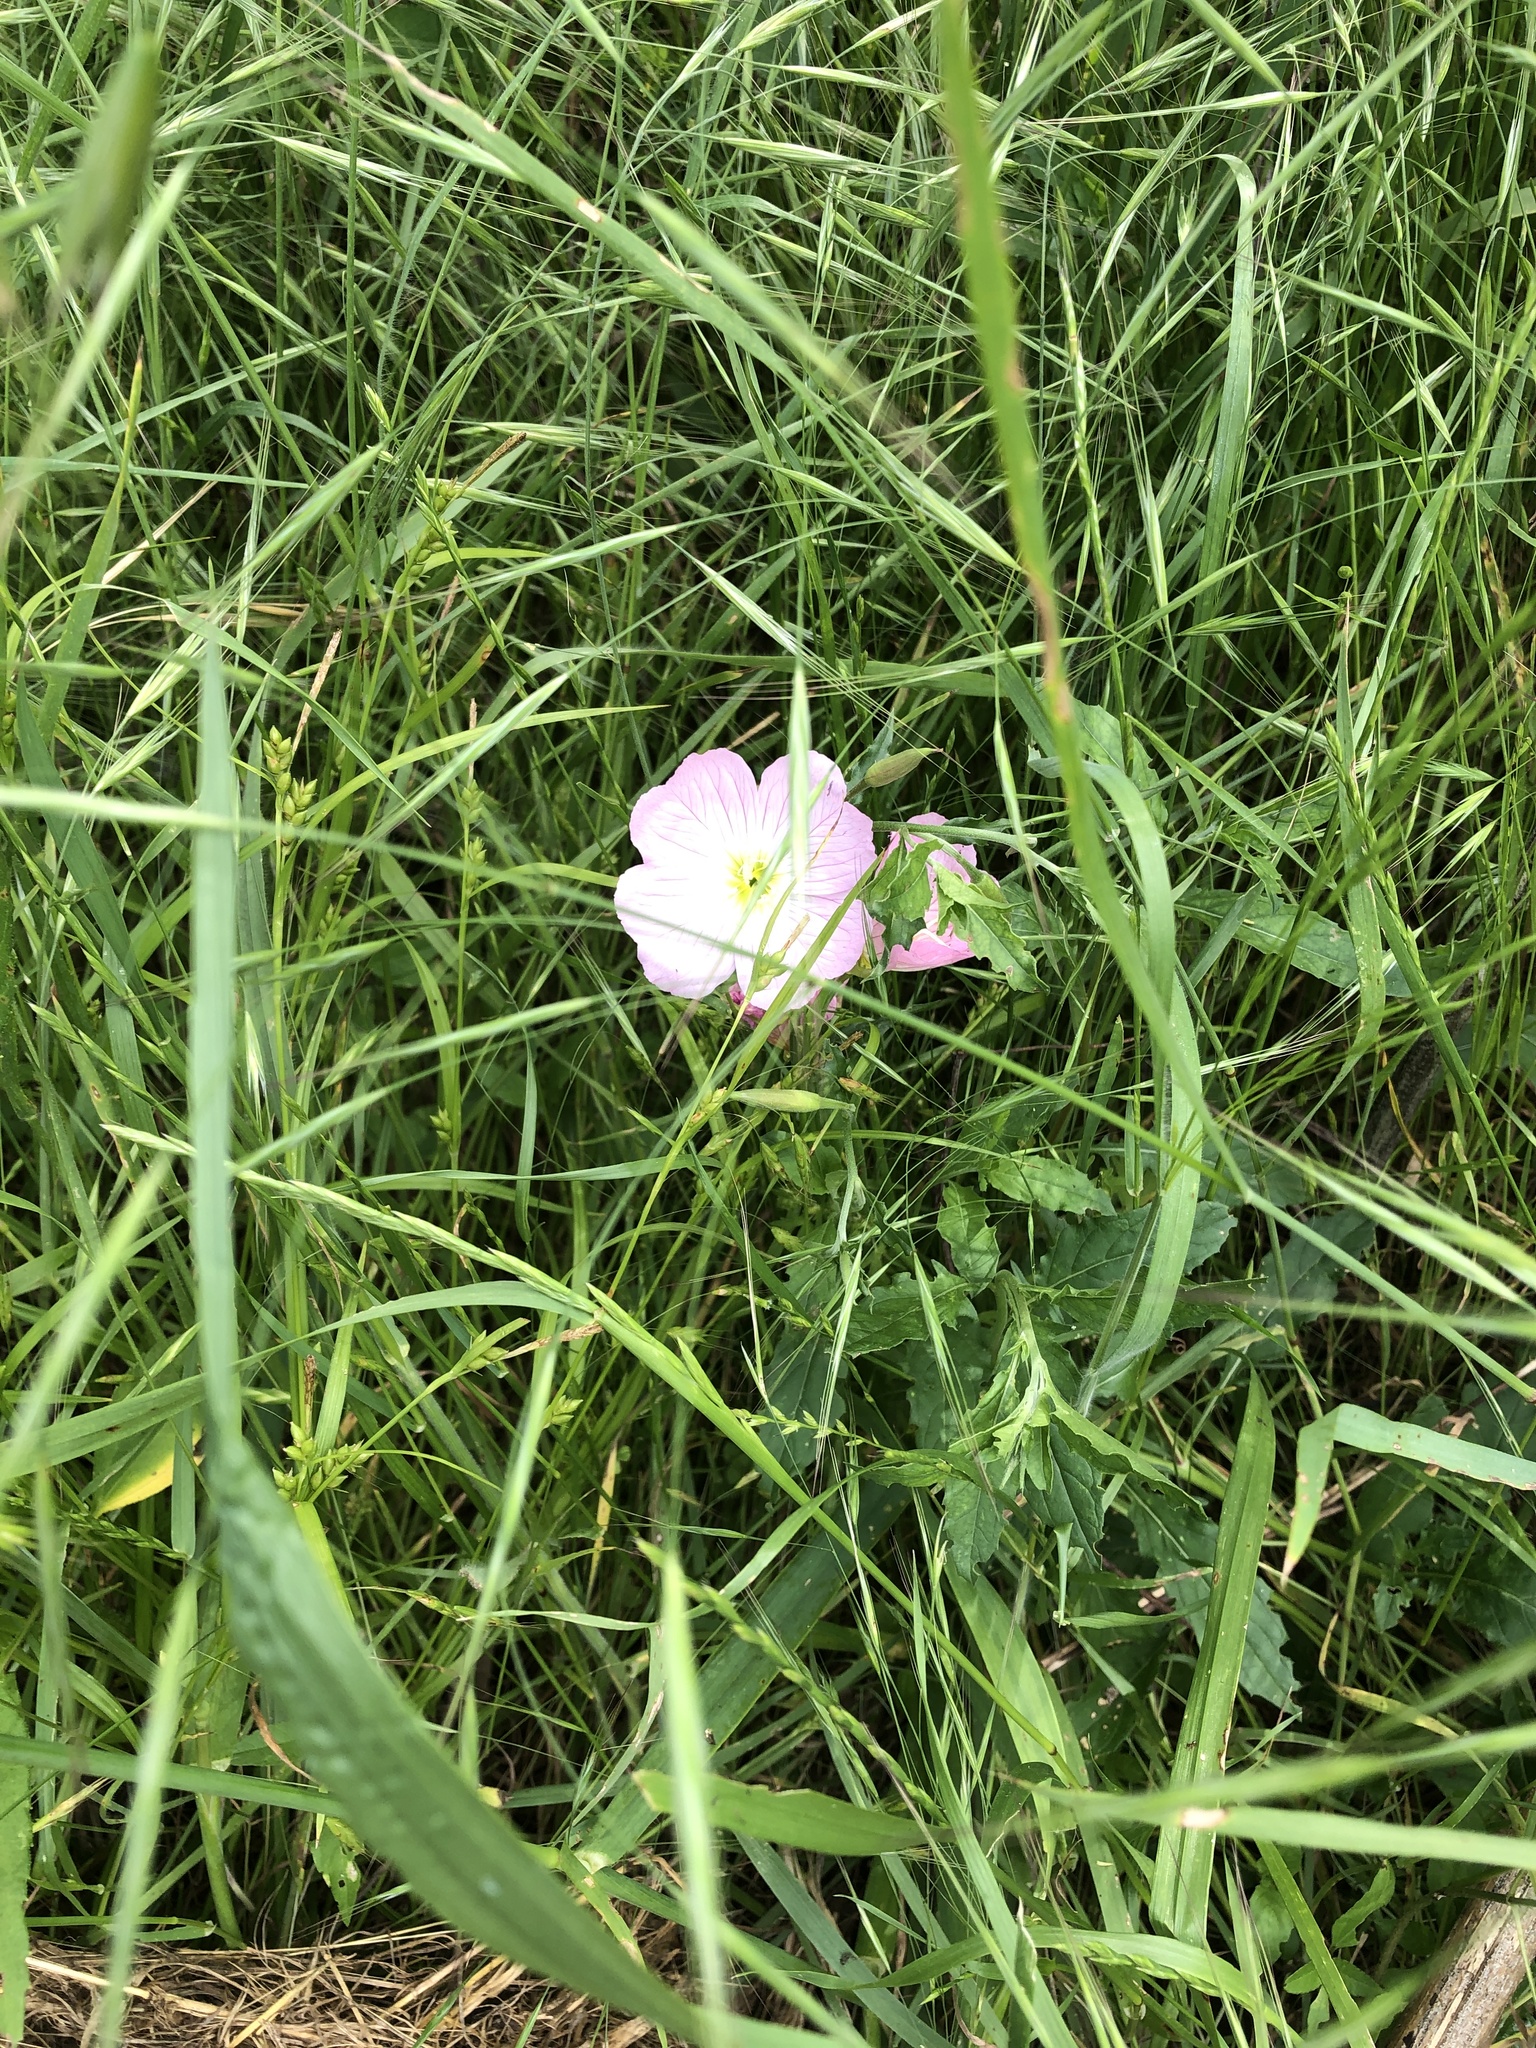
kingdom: Plantae
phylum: Tracheophyta
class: Magnoliopsida
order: Myrtales
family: Onagraceae
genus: Oenothera
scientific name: Oenothera speciosa
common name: White evening-primrose
